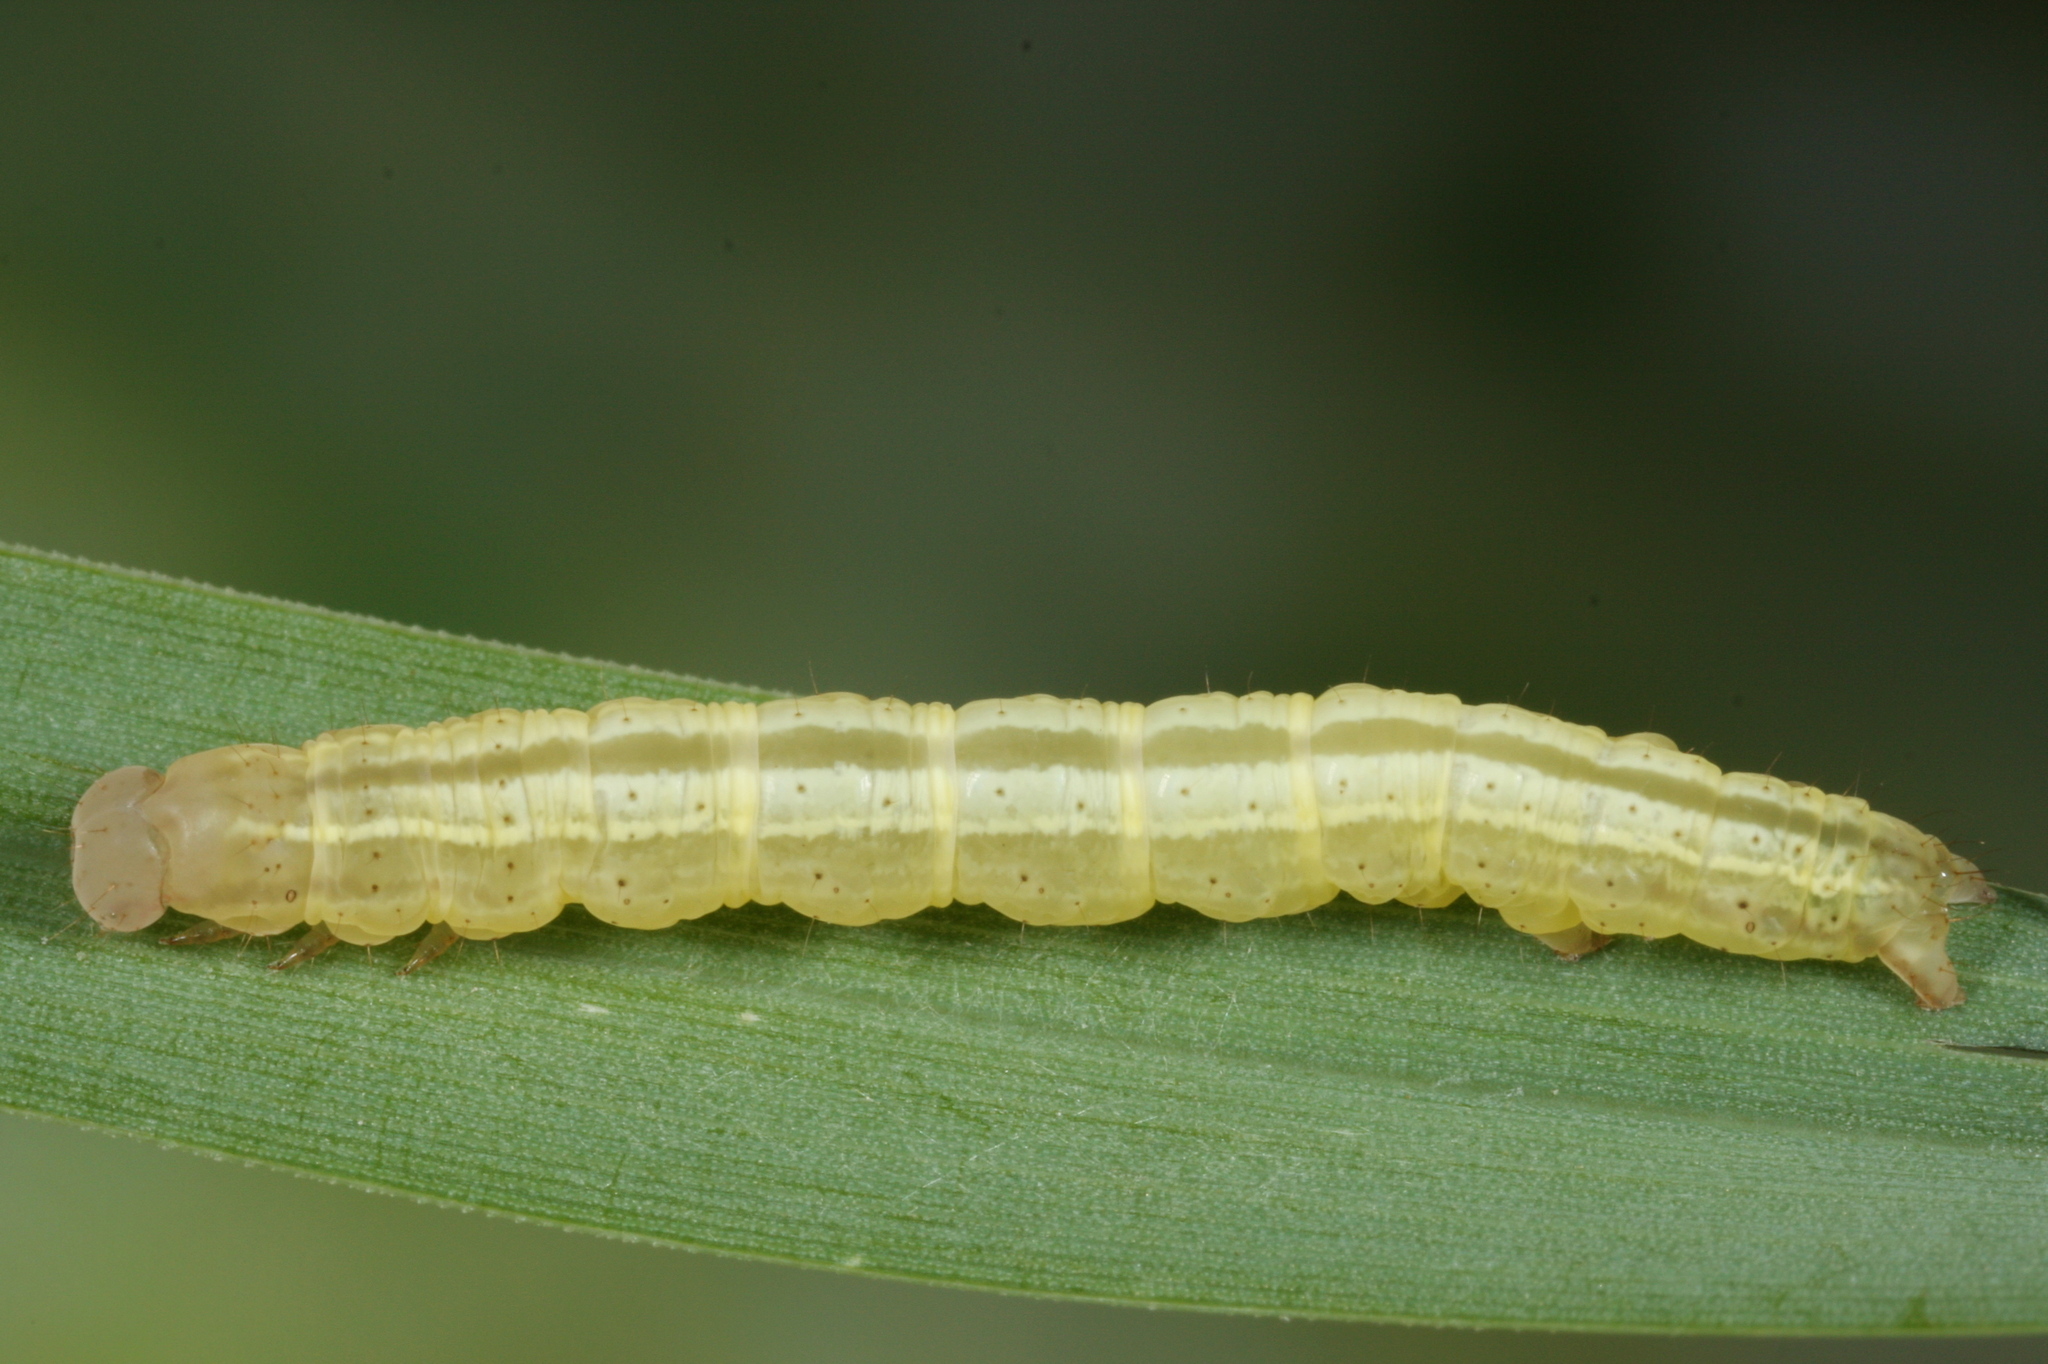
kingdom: Animalia
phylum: Arthropoda
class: Insecta
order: Lepidoptera
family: Noctuidae
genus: Deltote
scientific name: Deltote pygarga
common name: Marbled white spot
